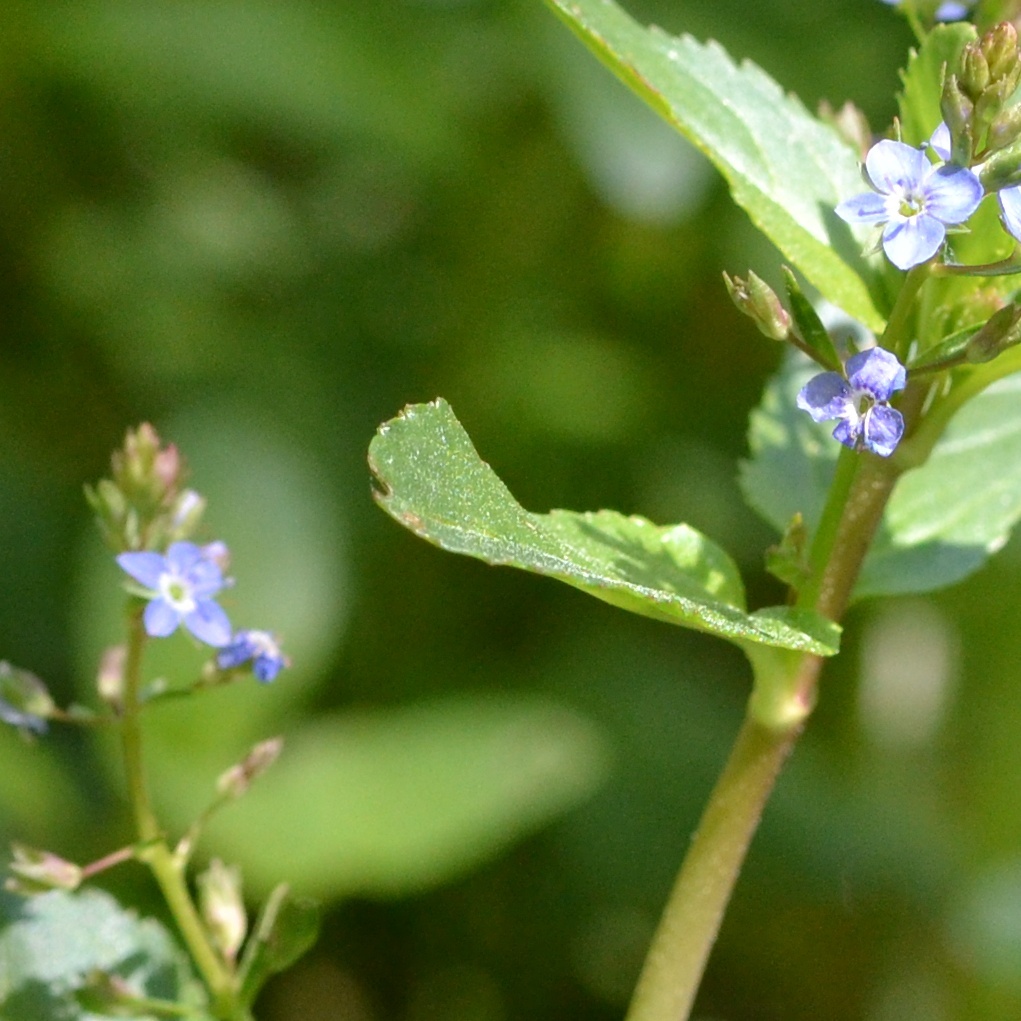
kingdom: Plantae
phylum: Tracheophyta
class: Magnoliopsida
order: Lamiales
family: Plantaginaceae
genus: Veronica
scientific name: Veronica beccabunga
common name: Brooklime
